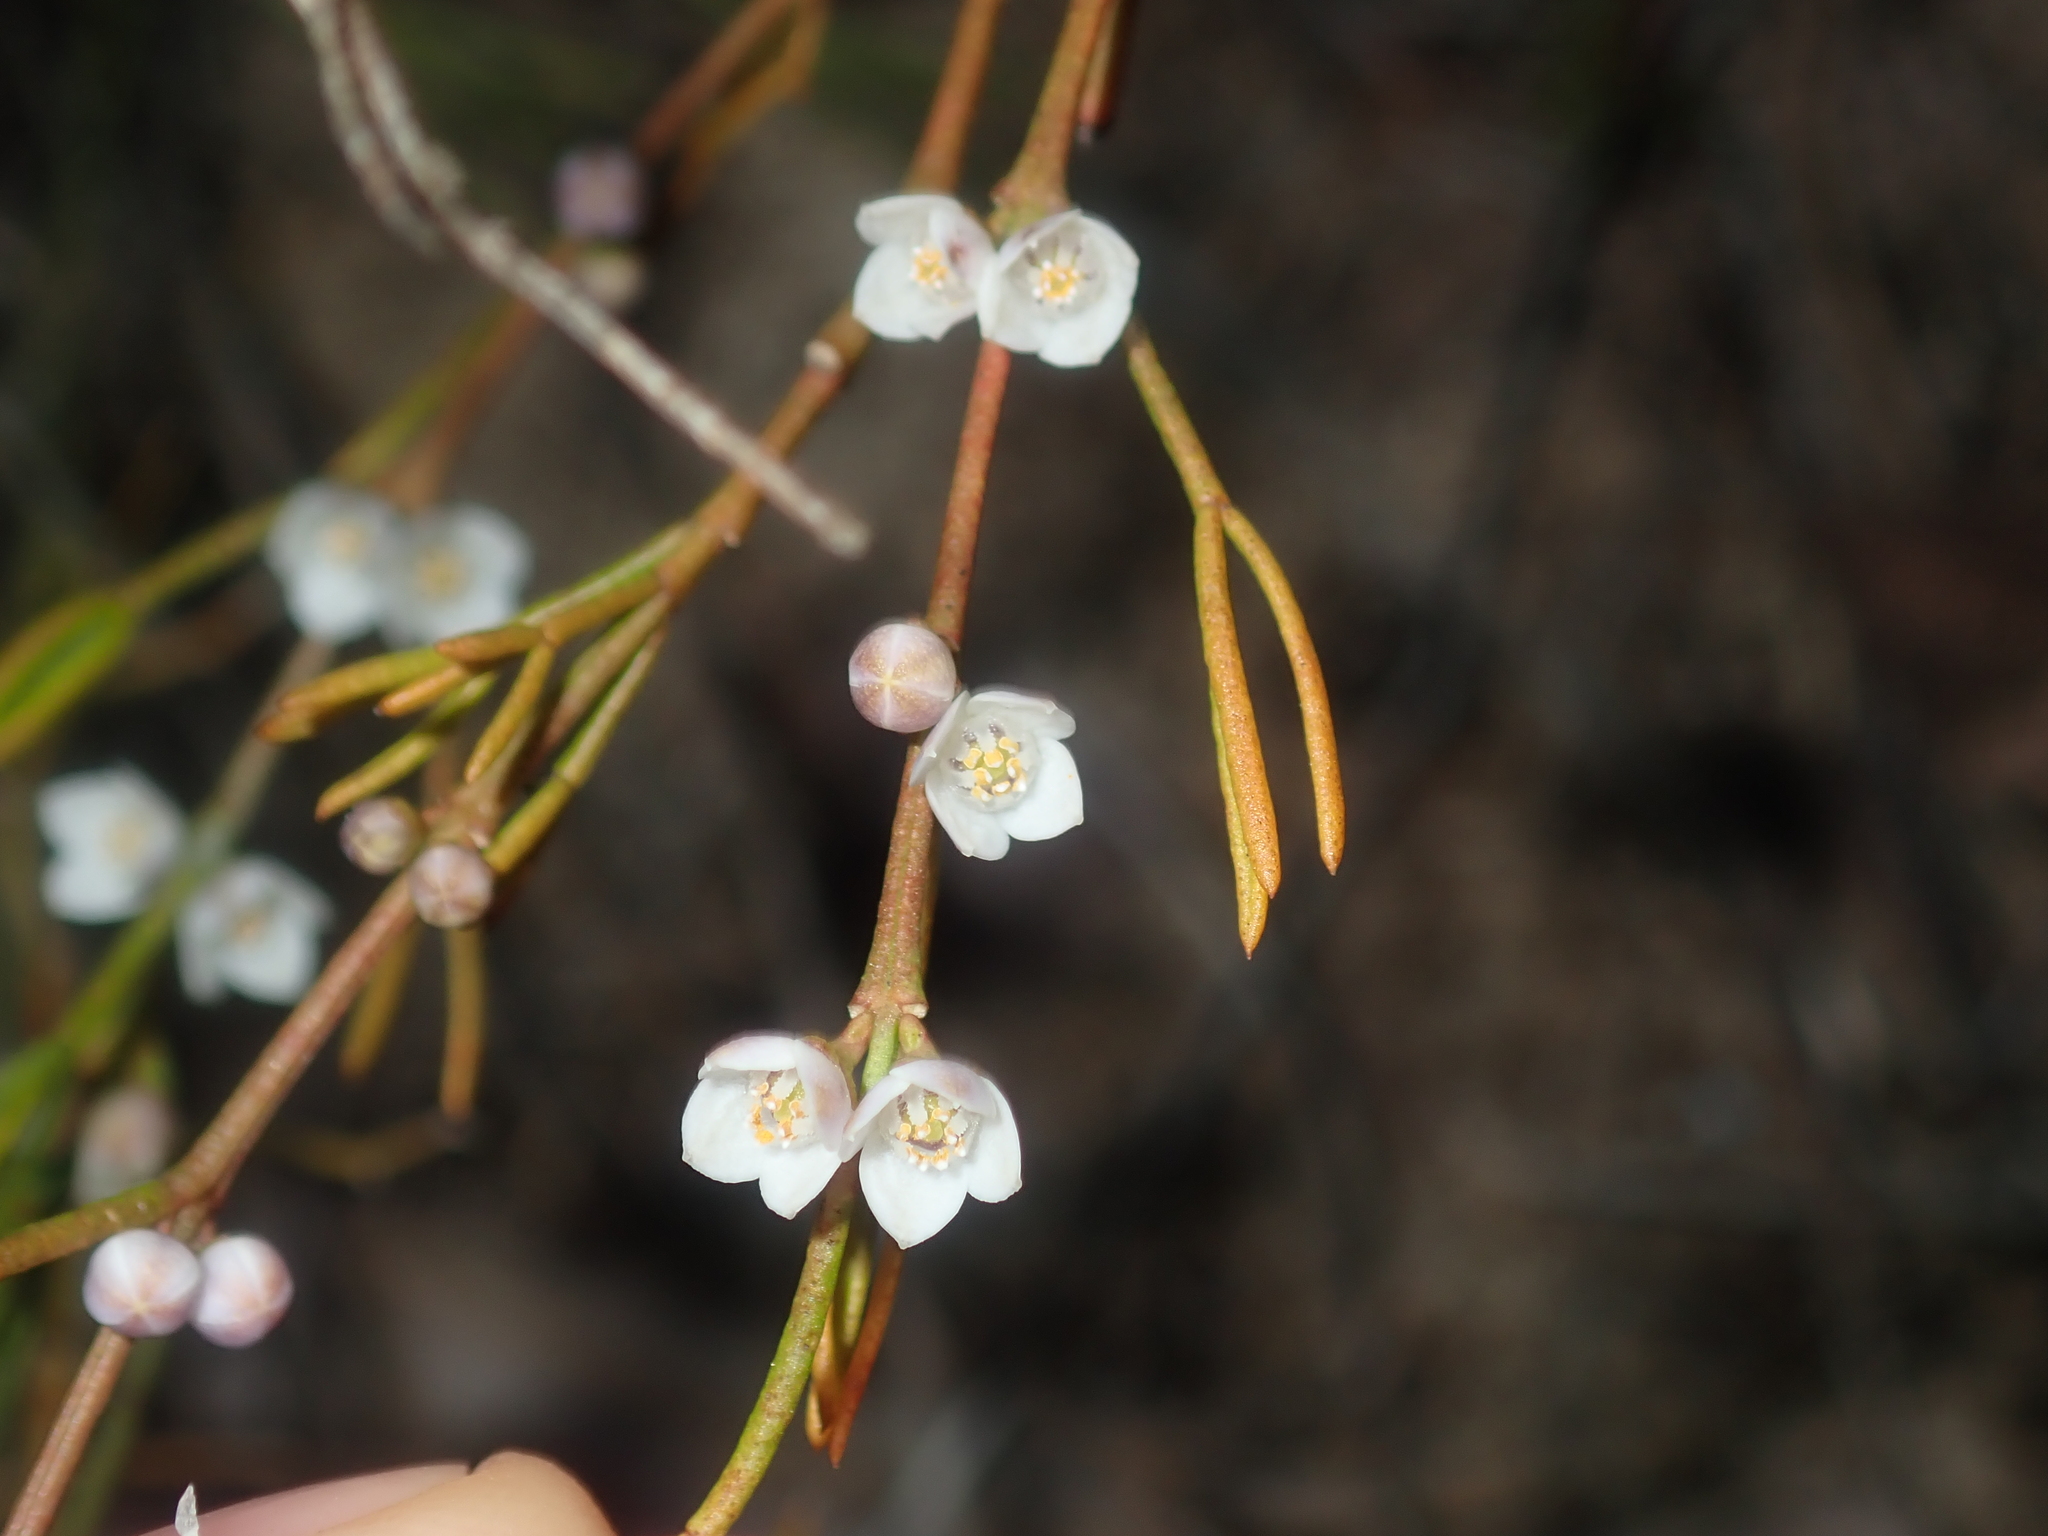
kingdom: Plantae
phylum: Tracheophyta
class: Magnoliopsida
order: Sapindales
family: Rutaceae
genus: Cyanothamnus
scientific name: Cyanothamnus ramosus
